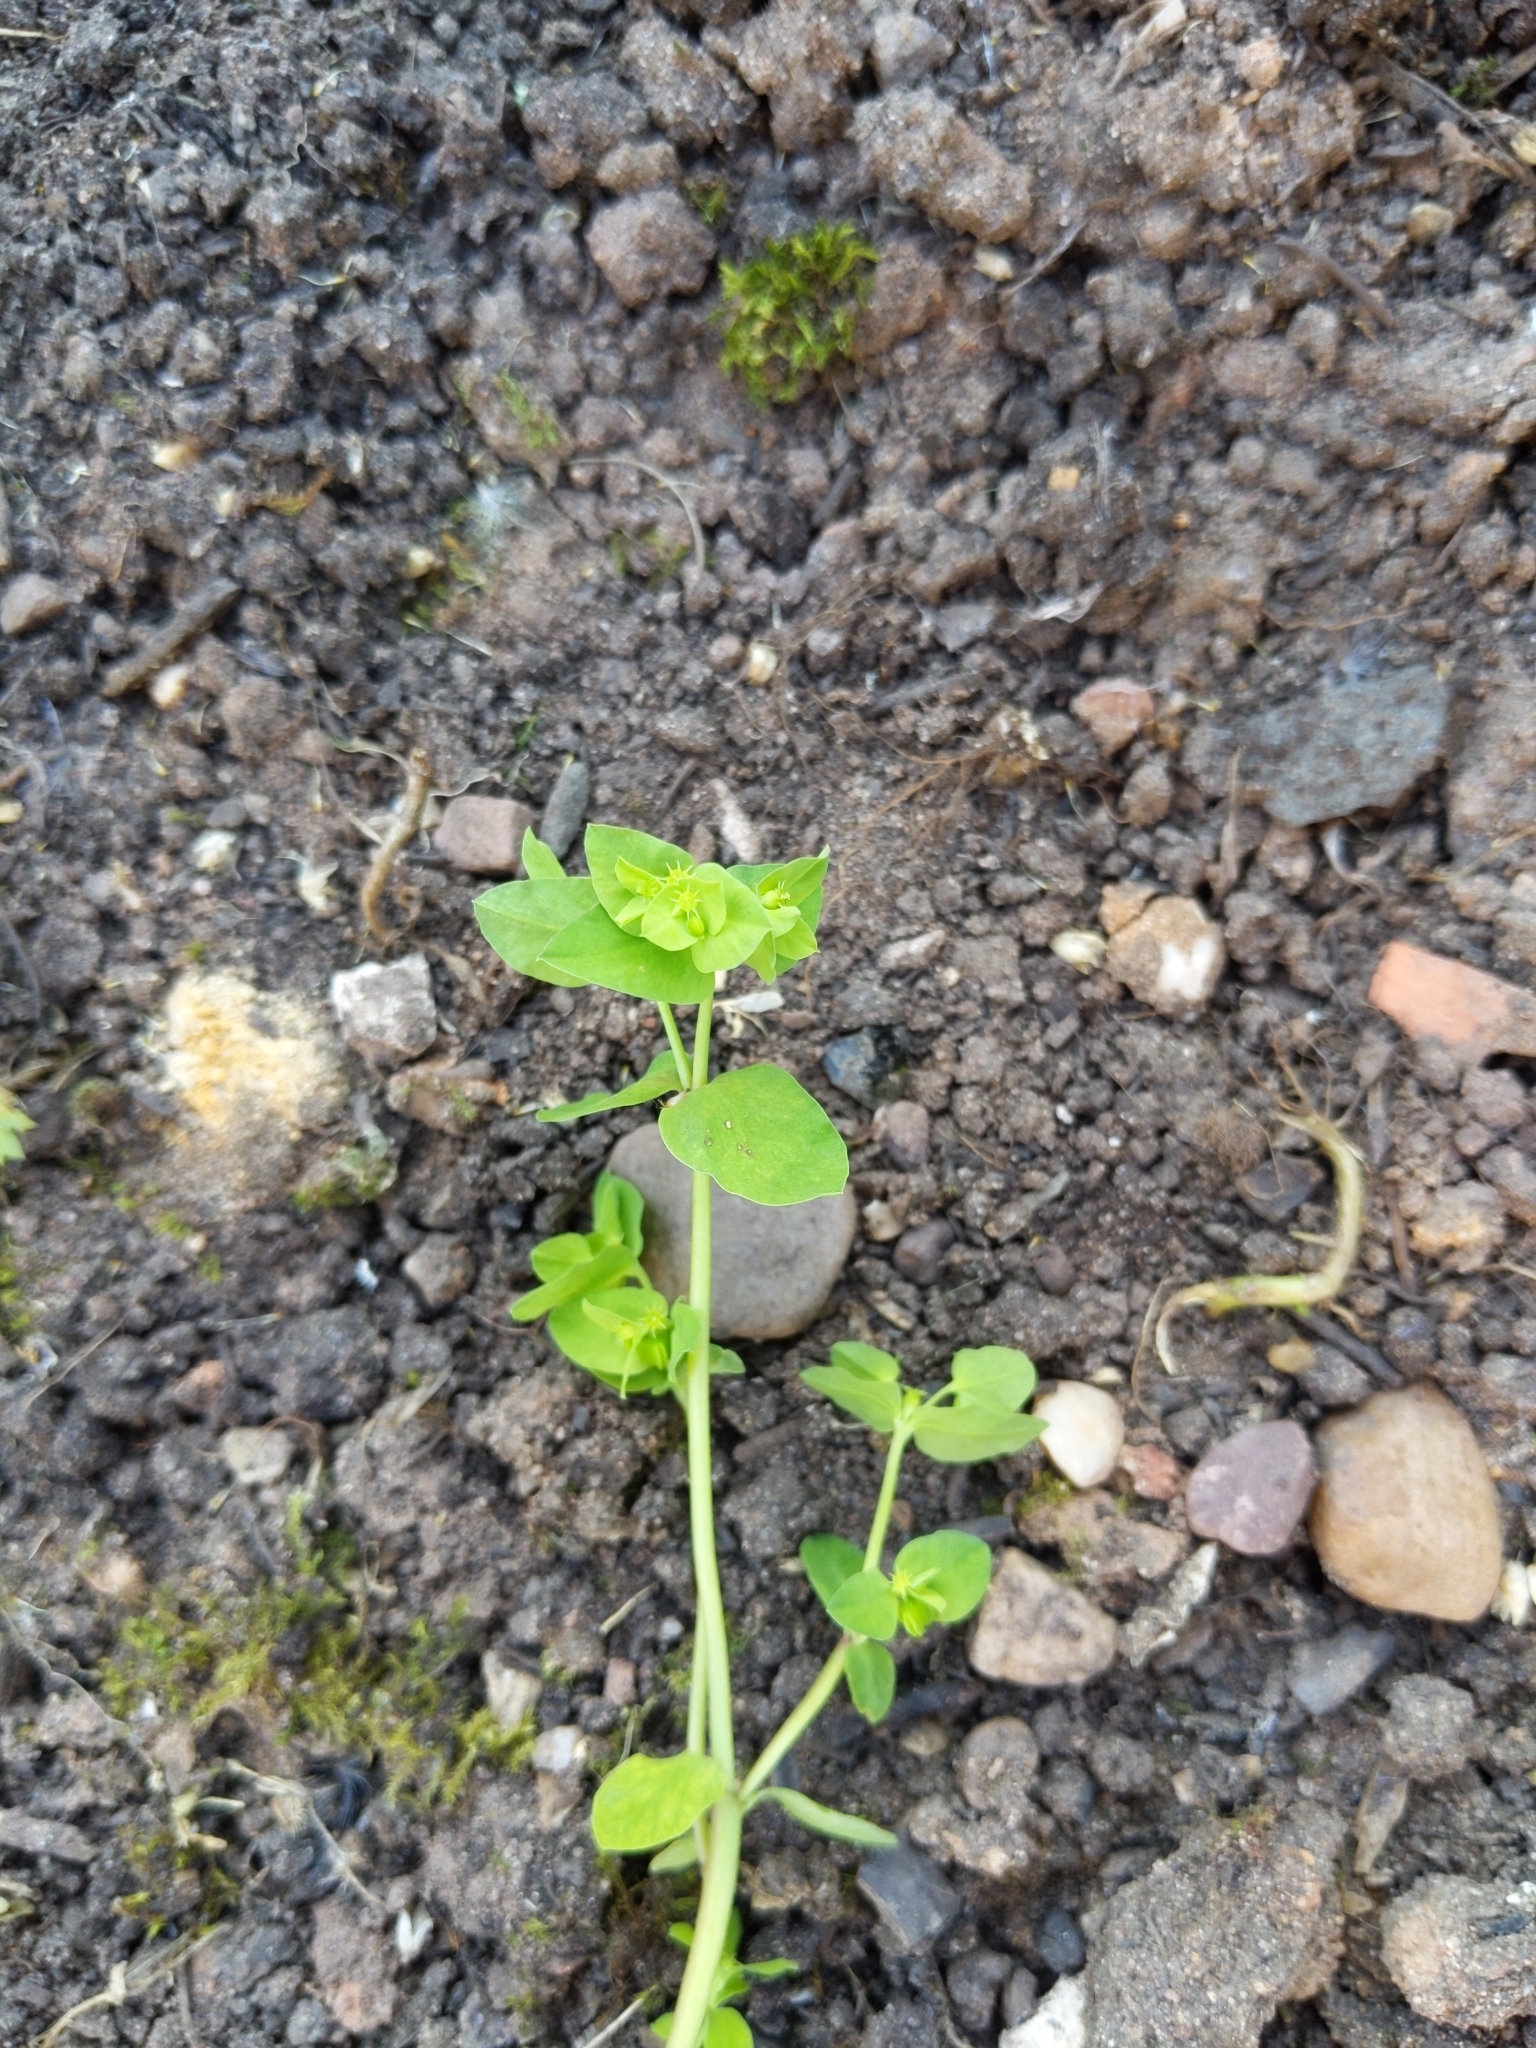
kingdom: Plantae
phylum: Tracheophyta
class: Magnoliopsida
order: Malpighiales
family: Euphorbiaceae
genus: Euphorbia
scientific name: Euphorbia peplus
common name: Petty spurge
